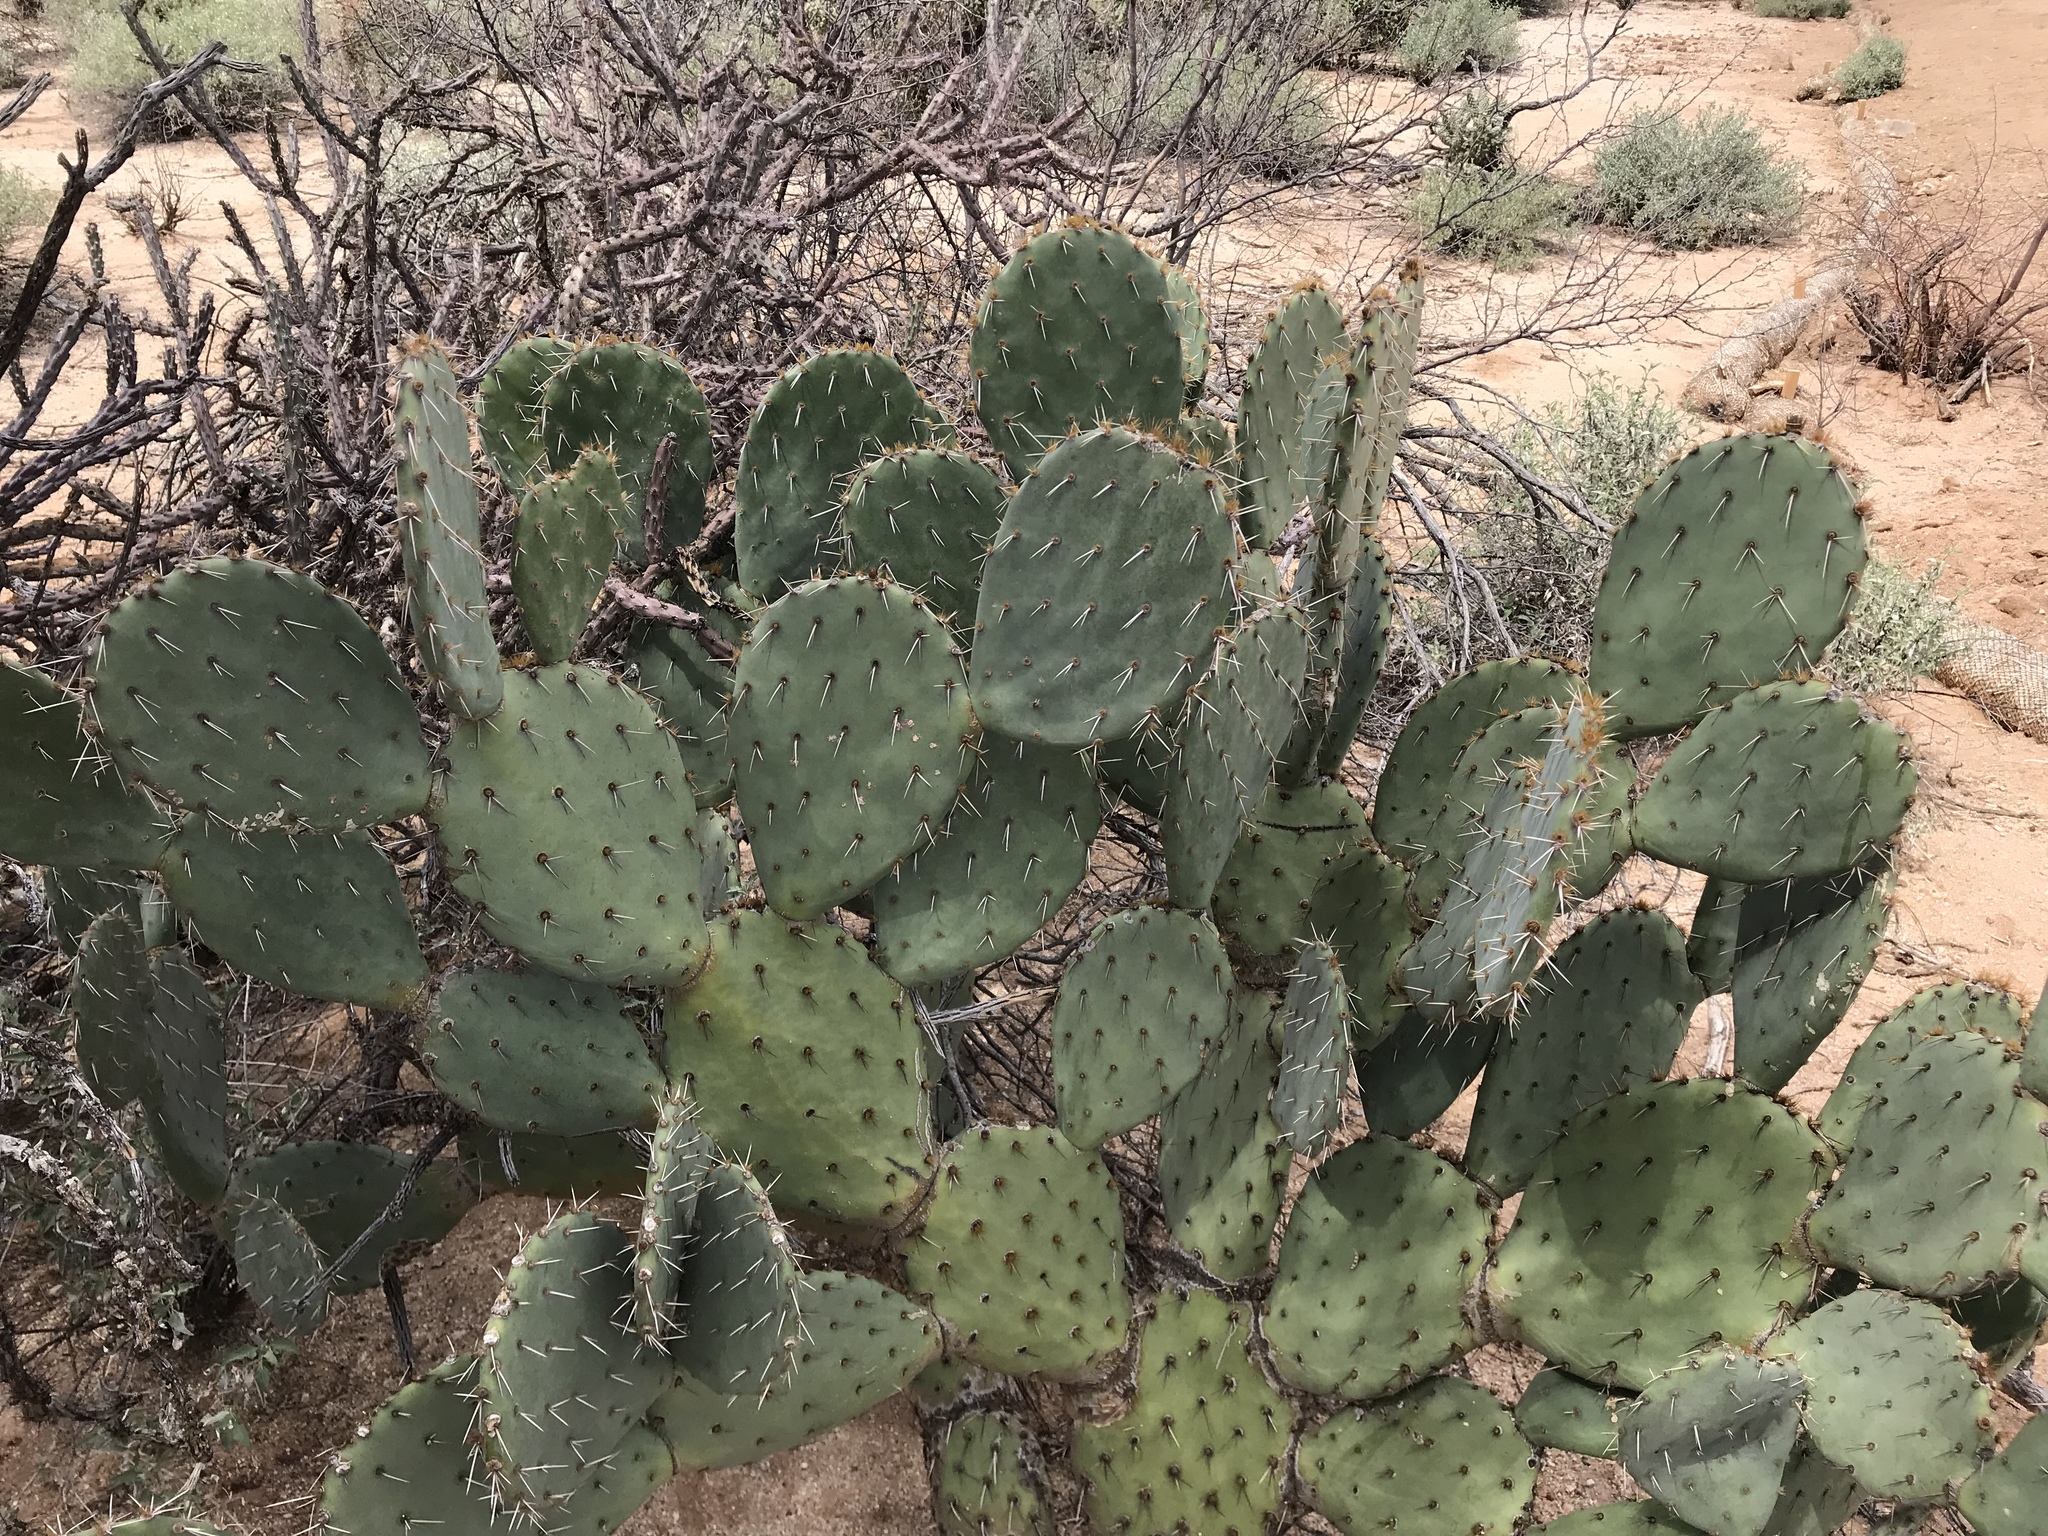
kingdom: Plantae
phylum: Tracheophyta
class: Magnoliopsida
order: Caryophyllales
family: Cactaceae
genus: Opuntia
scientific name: Opuntia engelmannii
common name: Cactus-apple
